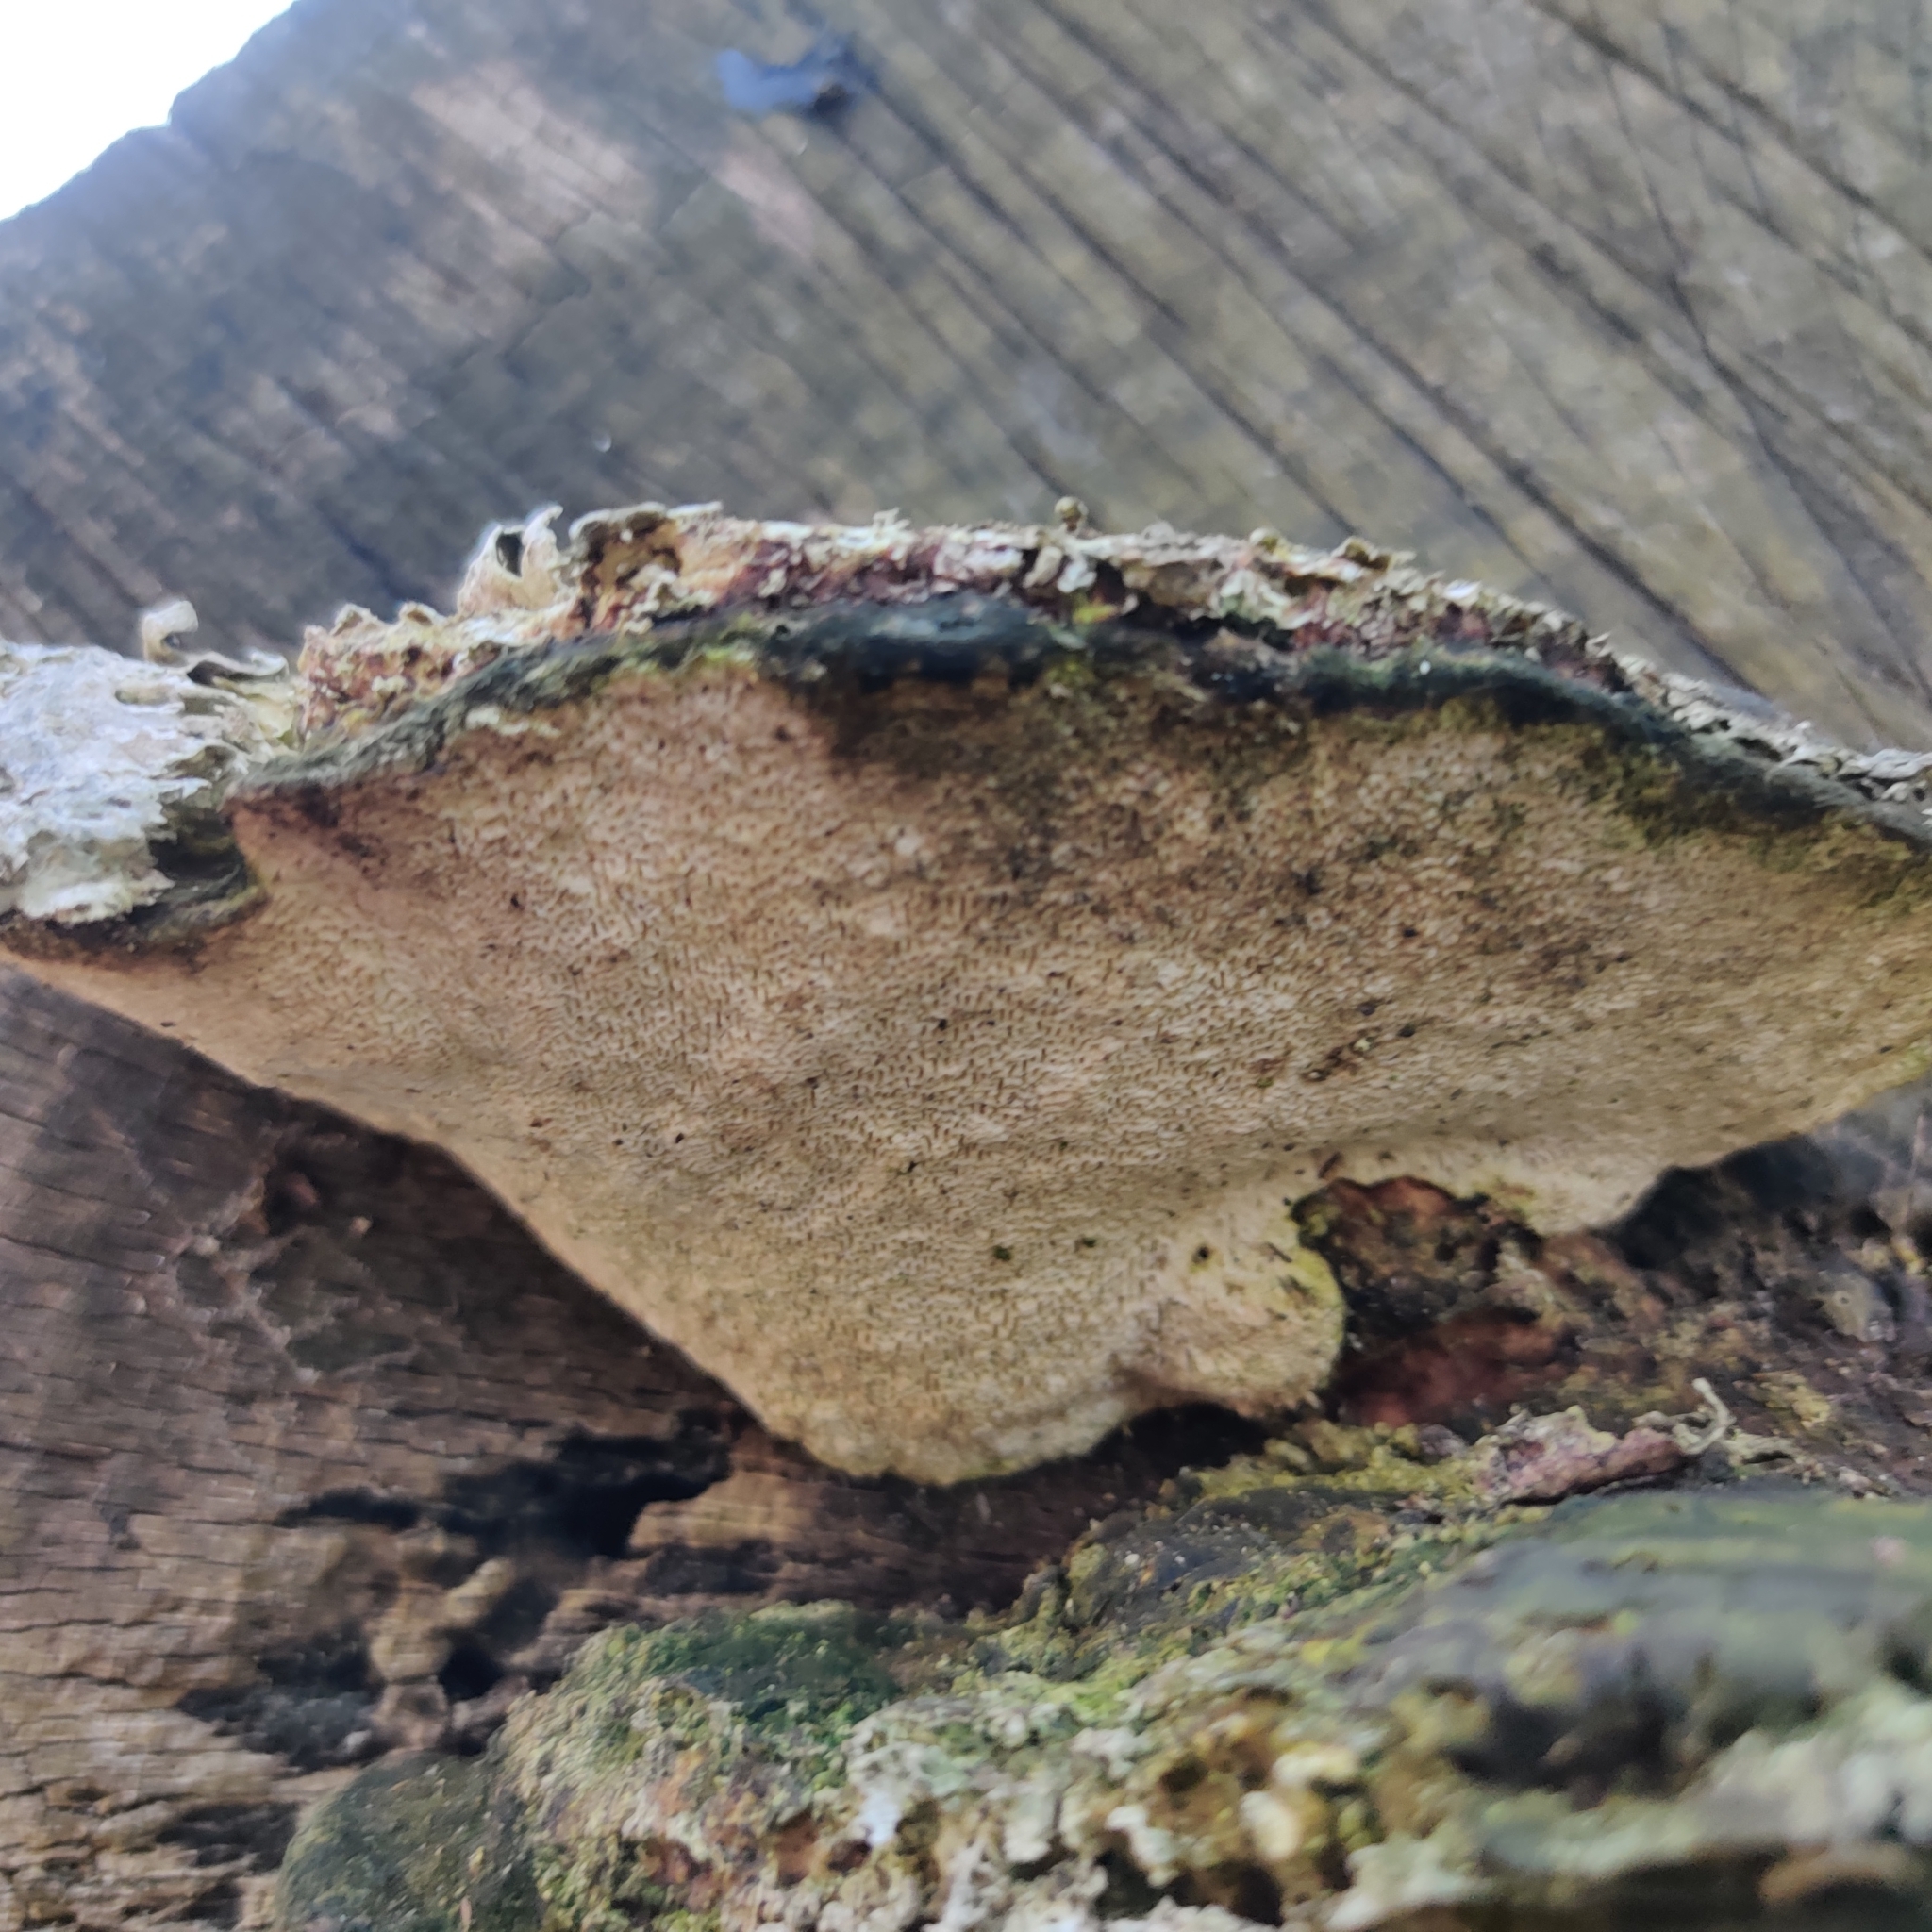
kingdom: Fungi
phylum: Basidiomycota
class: Agaricomycetes
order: Polyporales
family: Polyporaceae
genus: Trametes
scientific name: Trametes gibbosa
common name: Lumpy bracket
